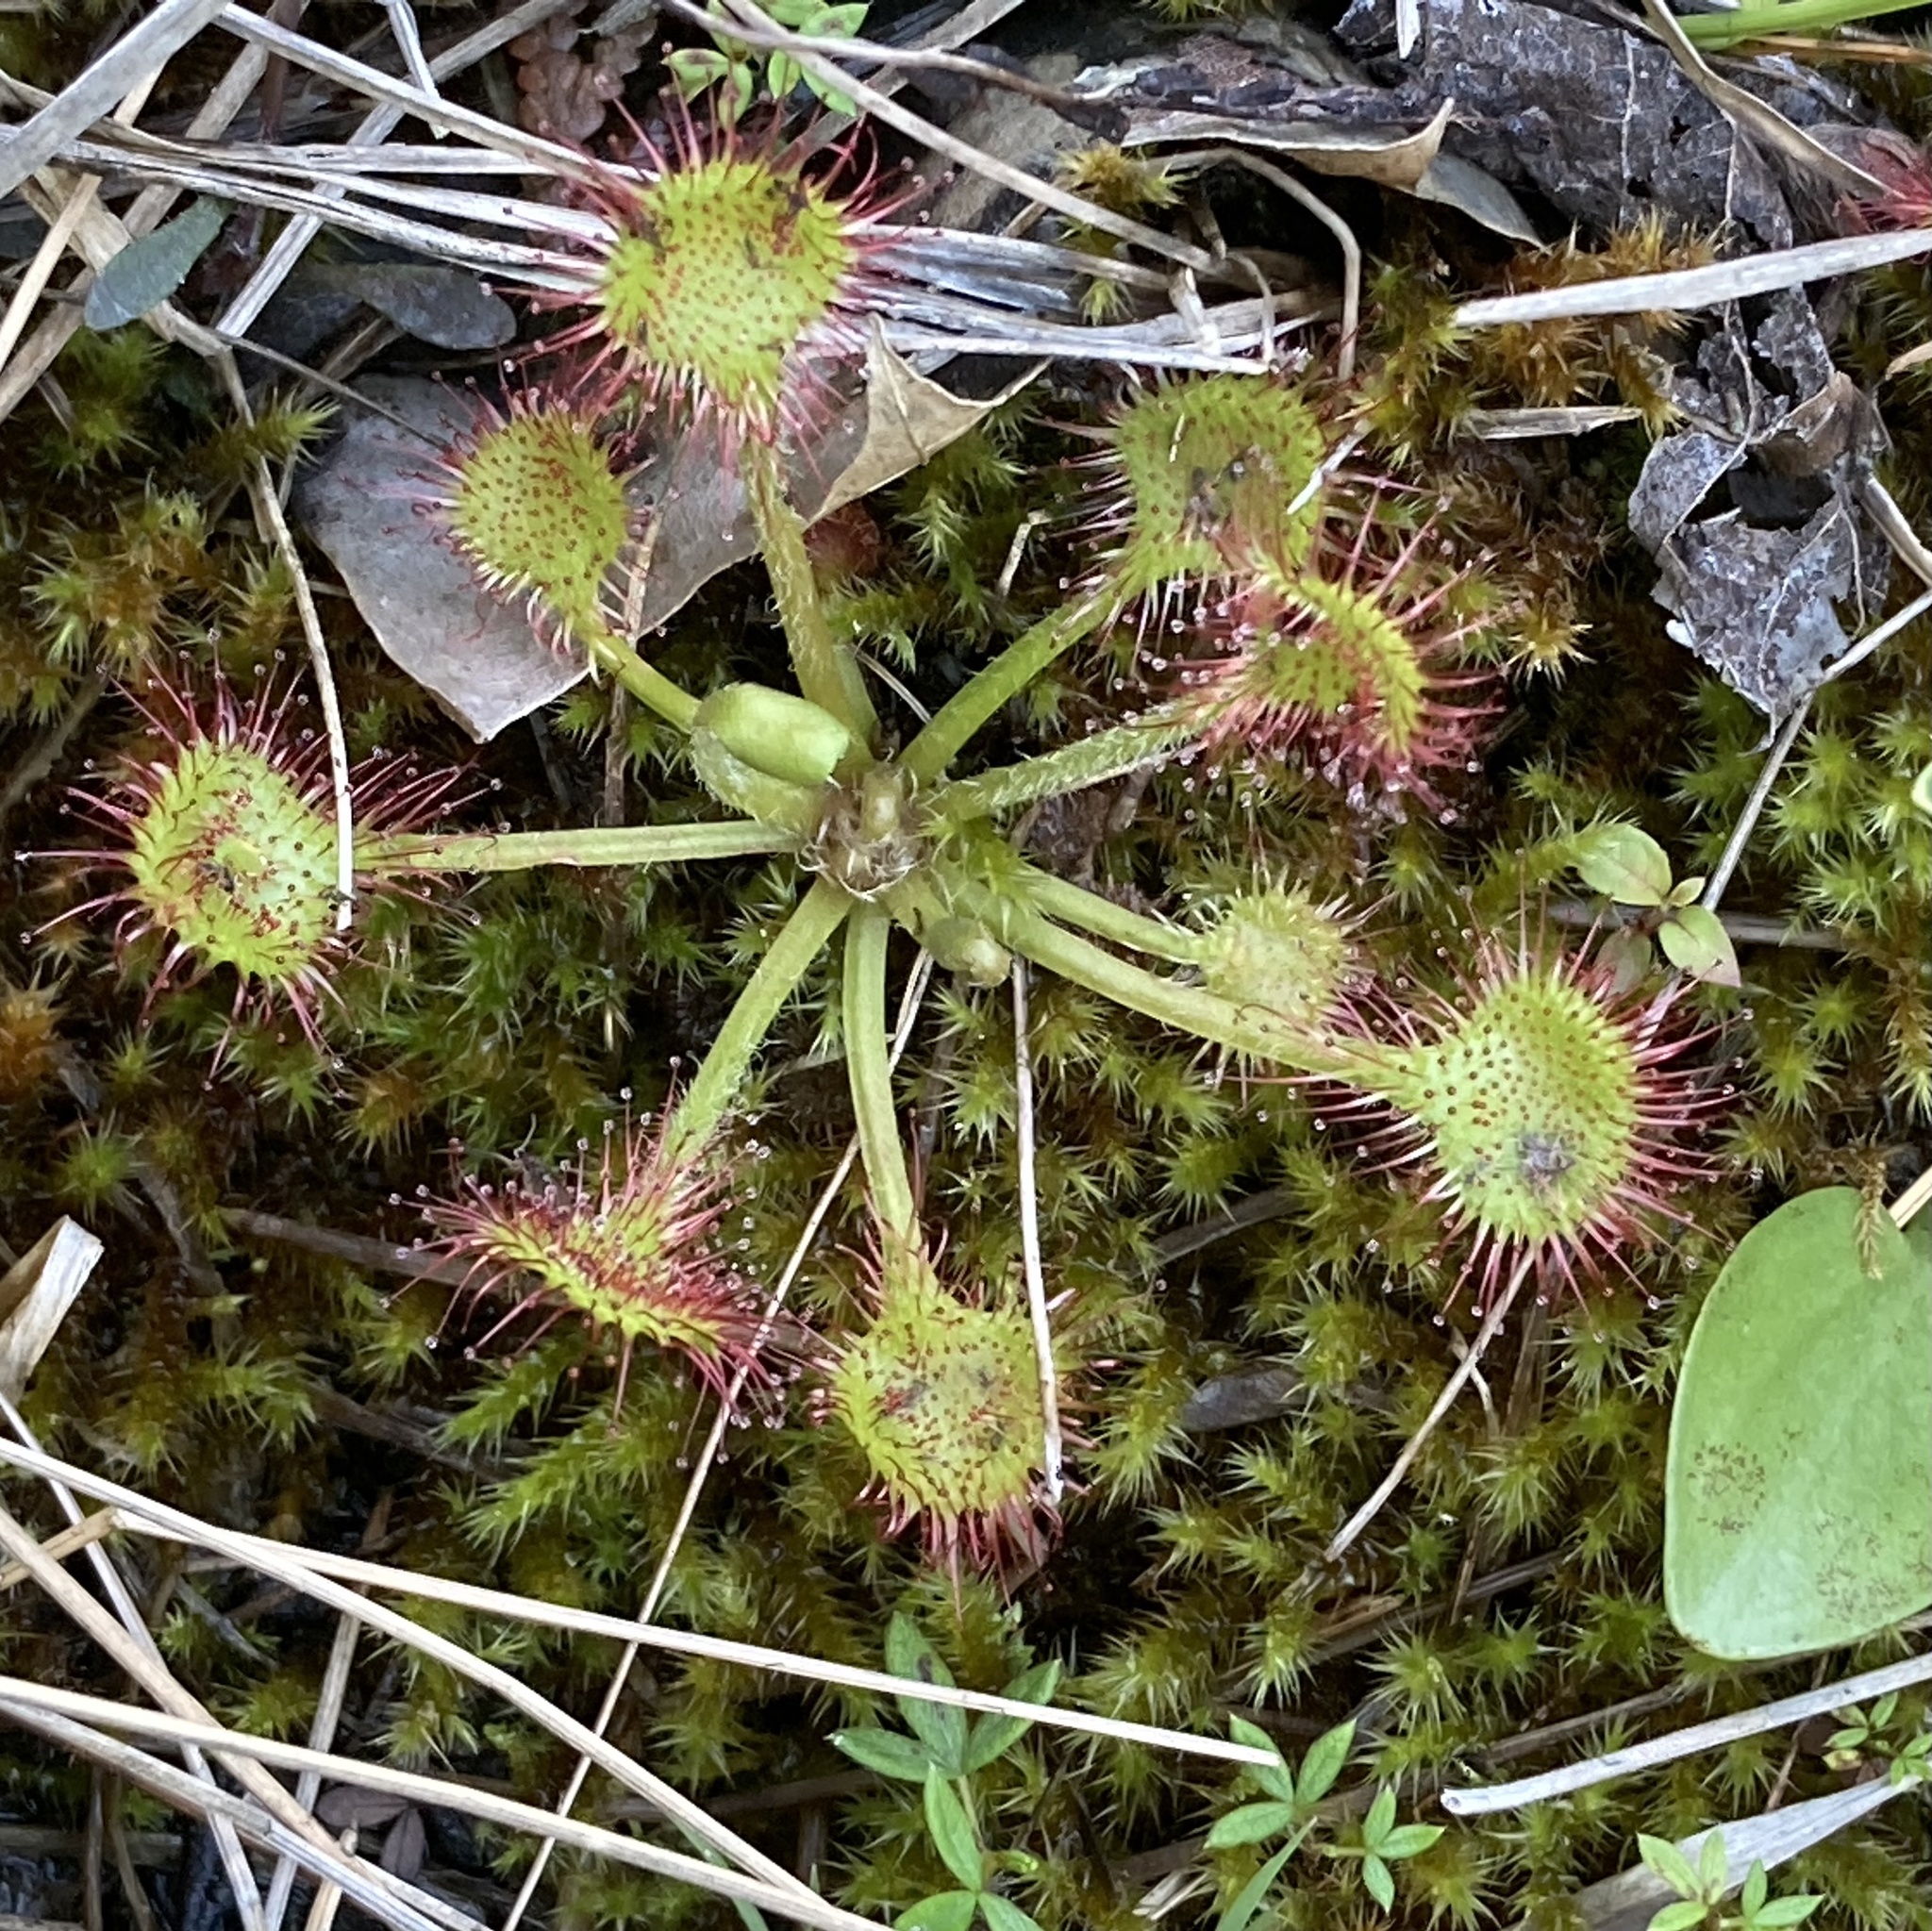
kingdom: Plantae
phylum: Tracheophyta
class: Magnoliopsida
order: Caryophyllales
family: Droseraceae
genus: Drosera
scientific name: Drosera rotundifolia
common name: Round-leaved sundew
